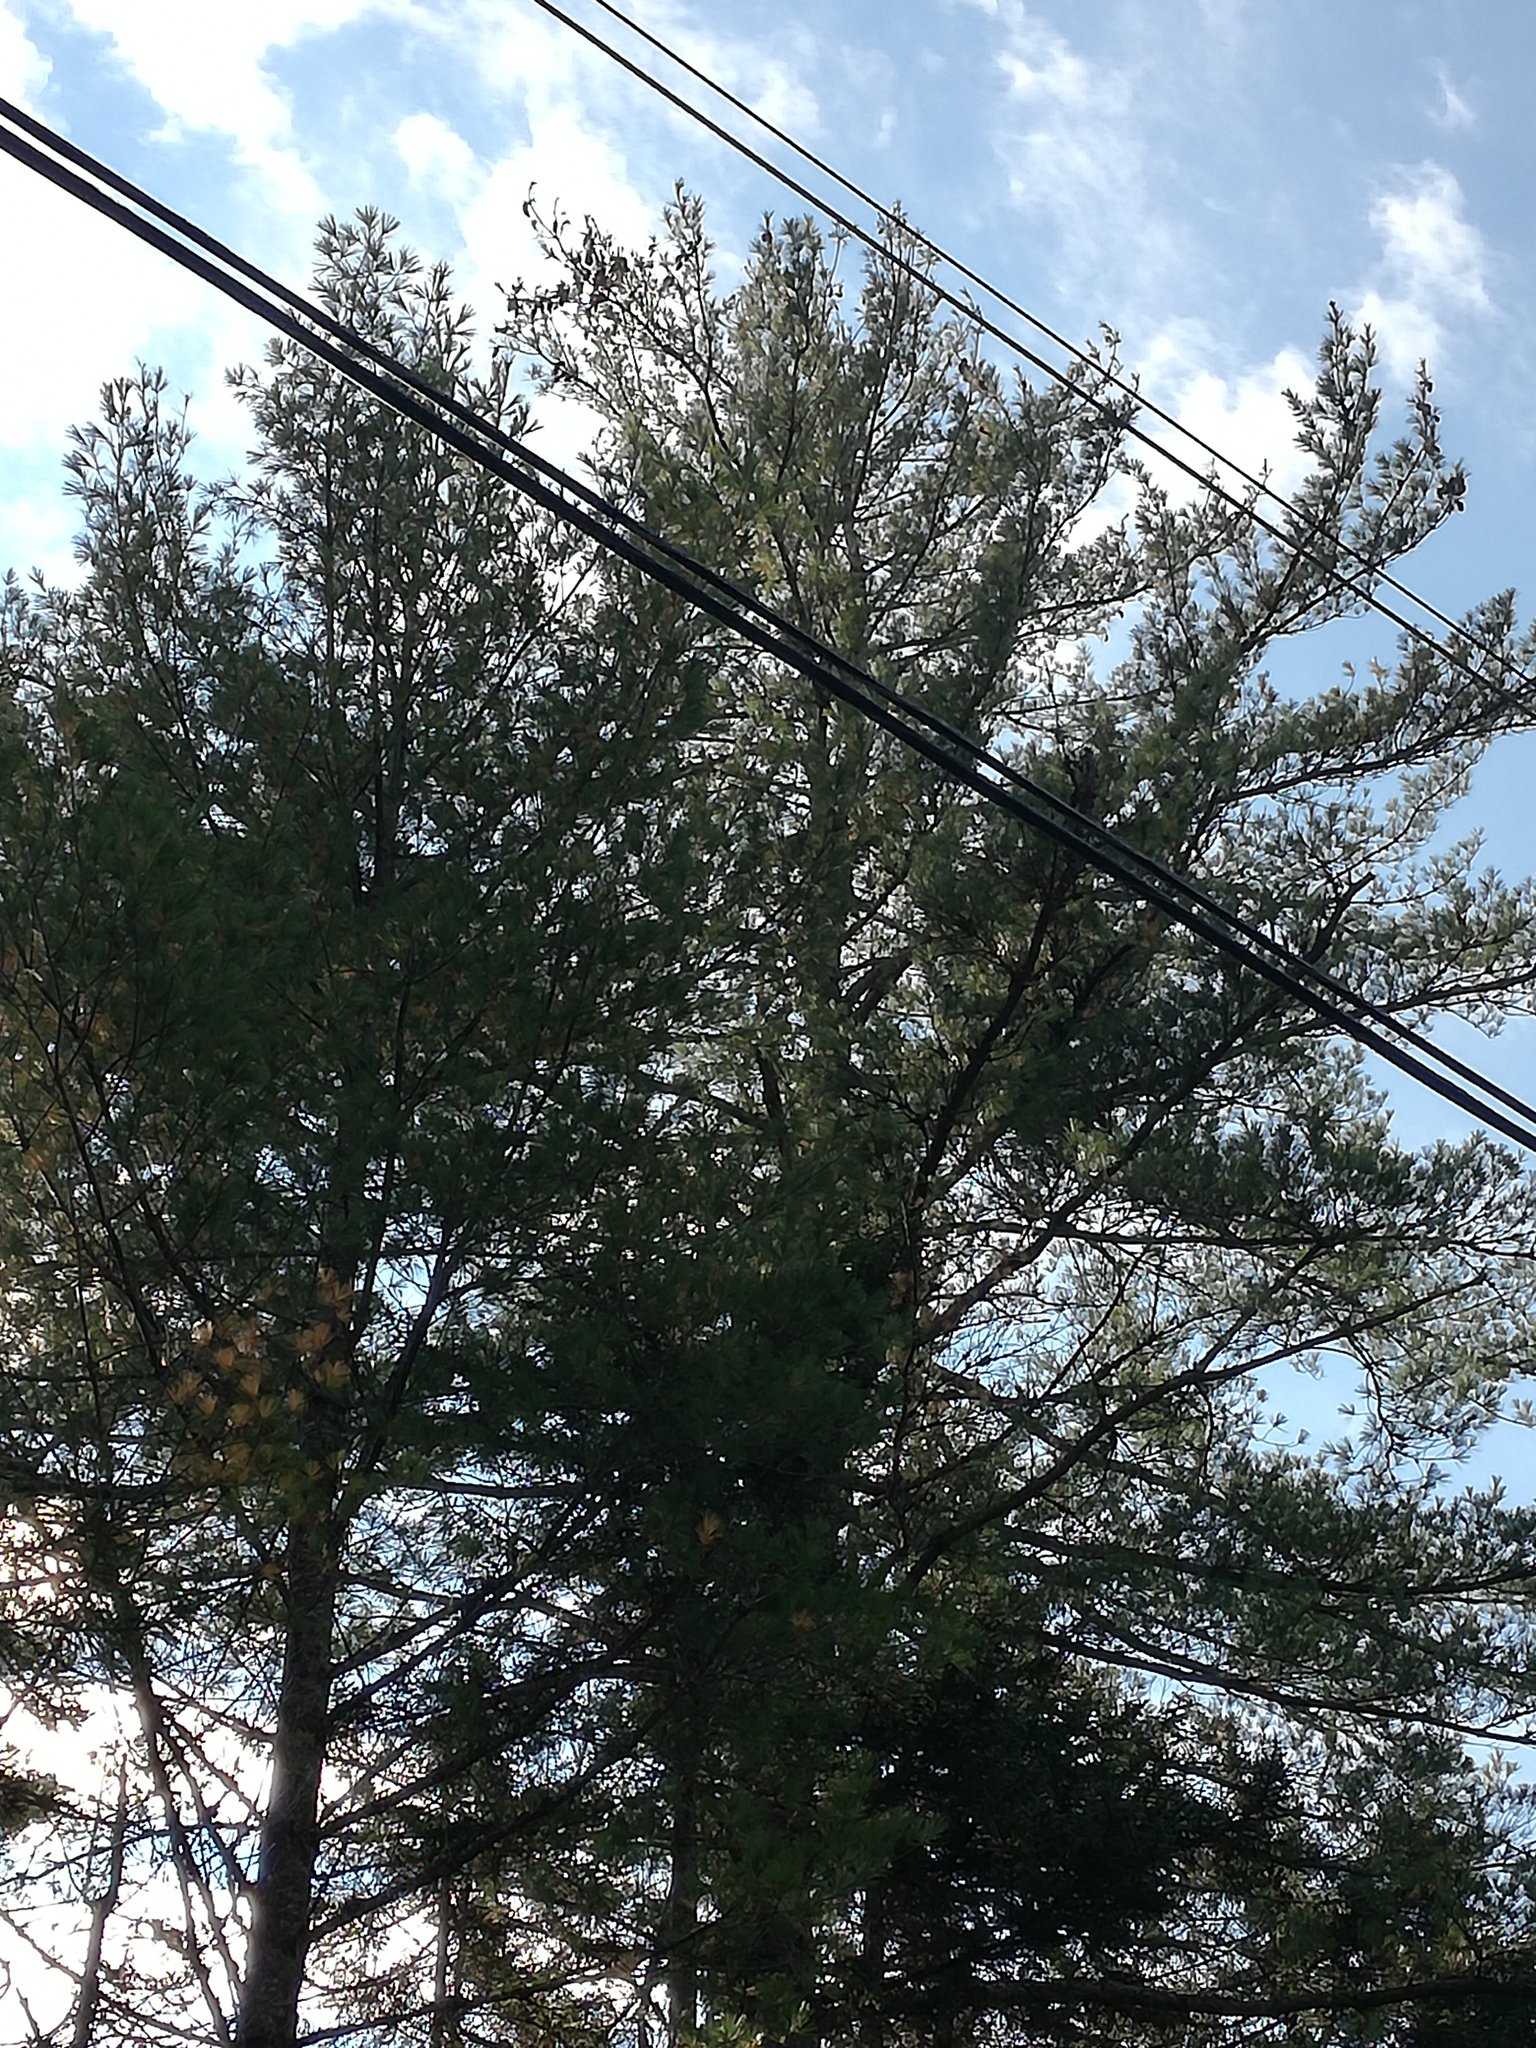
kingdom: Plantae
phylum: Tracheophyta
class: Pinopsida
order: Pinales
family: Pinaceae
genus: Pinus
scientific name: Pinus strobus
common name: Weymouth pine
